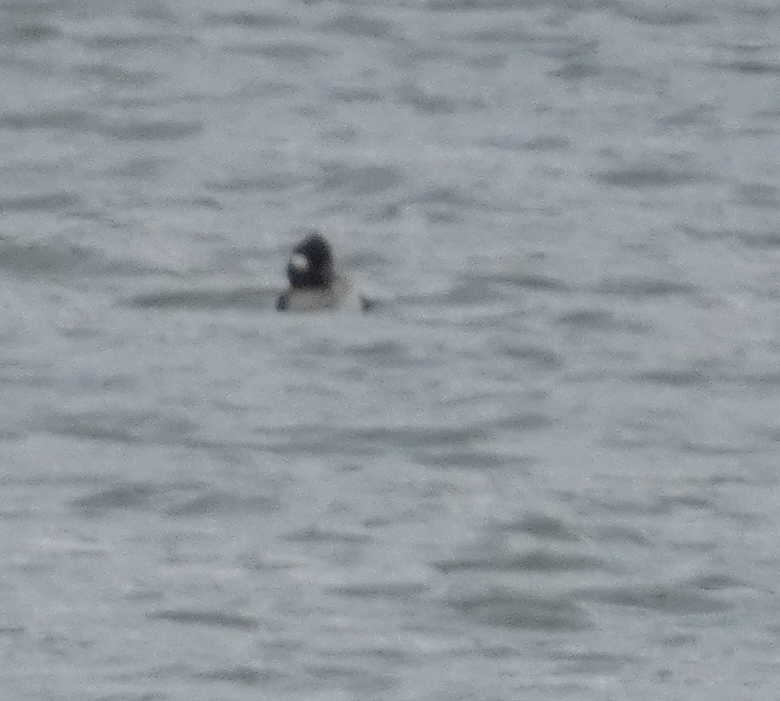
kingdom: Animalia
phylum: Chordata
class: Aves
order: Anseriformes
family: Anatidae
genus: Bucephala
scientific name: Bucephala albeola
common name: Bufflehead
